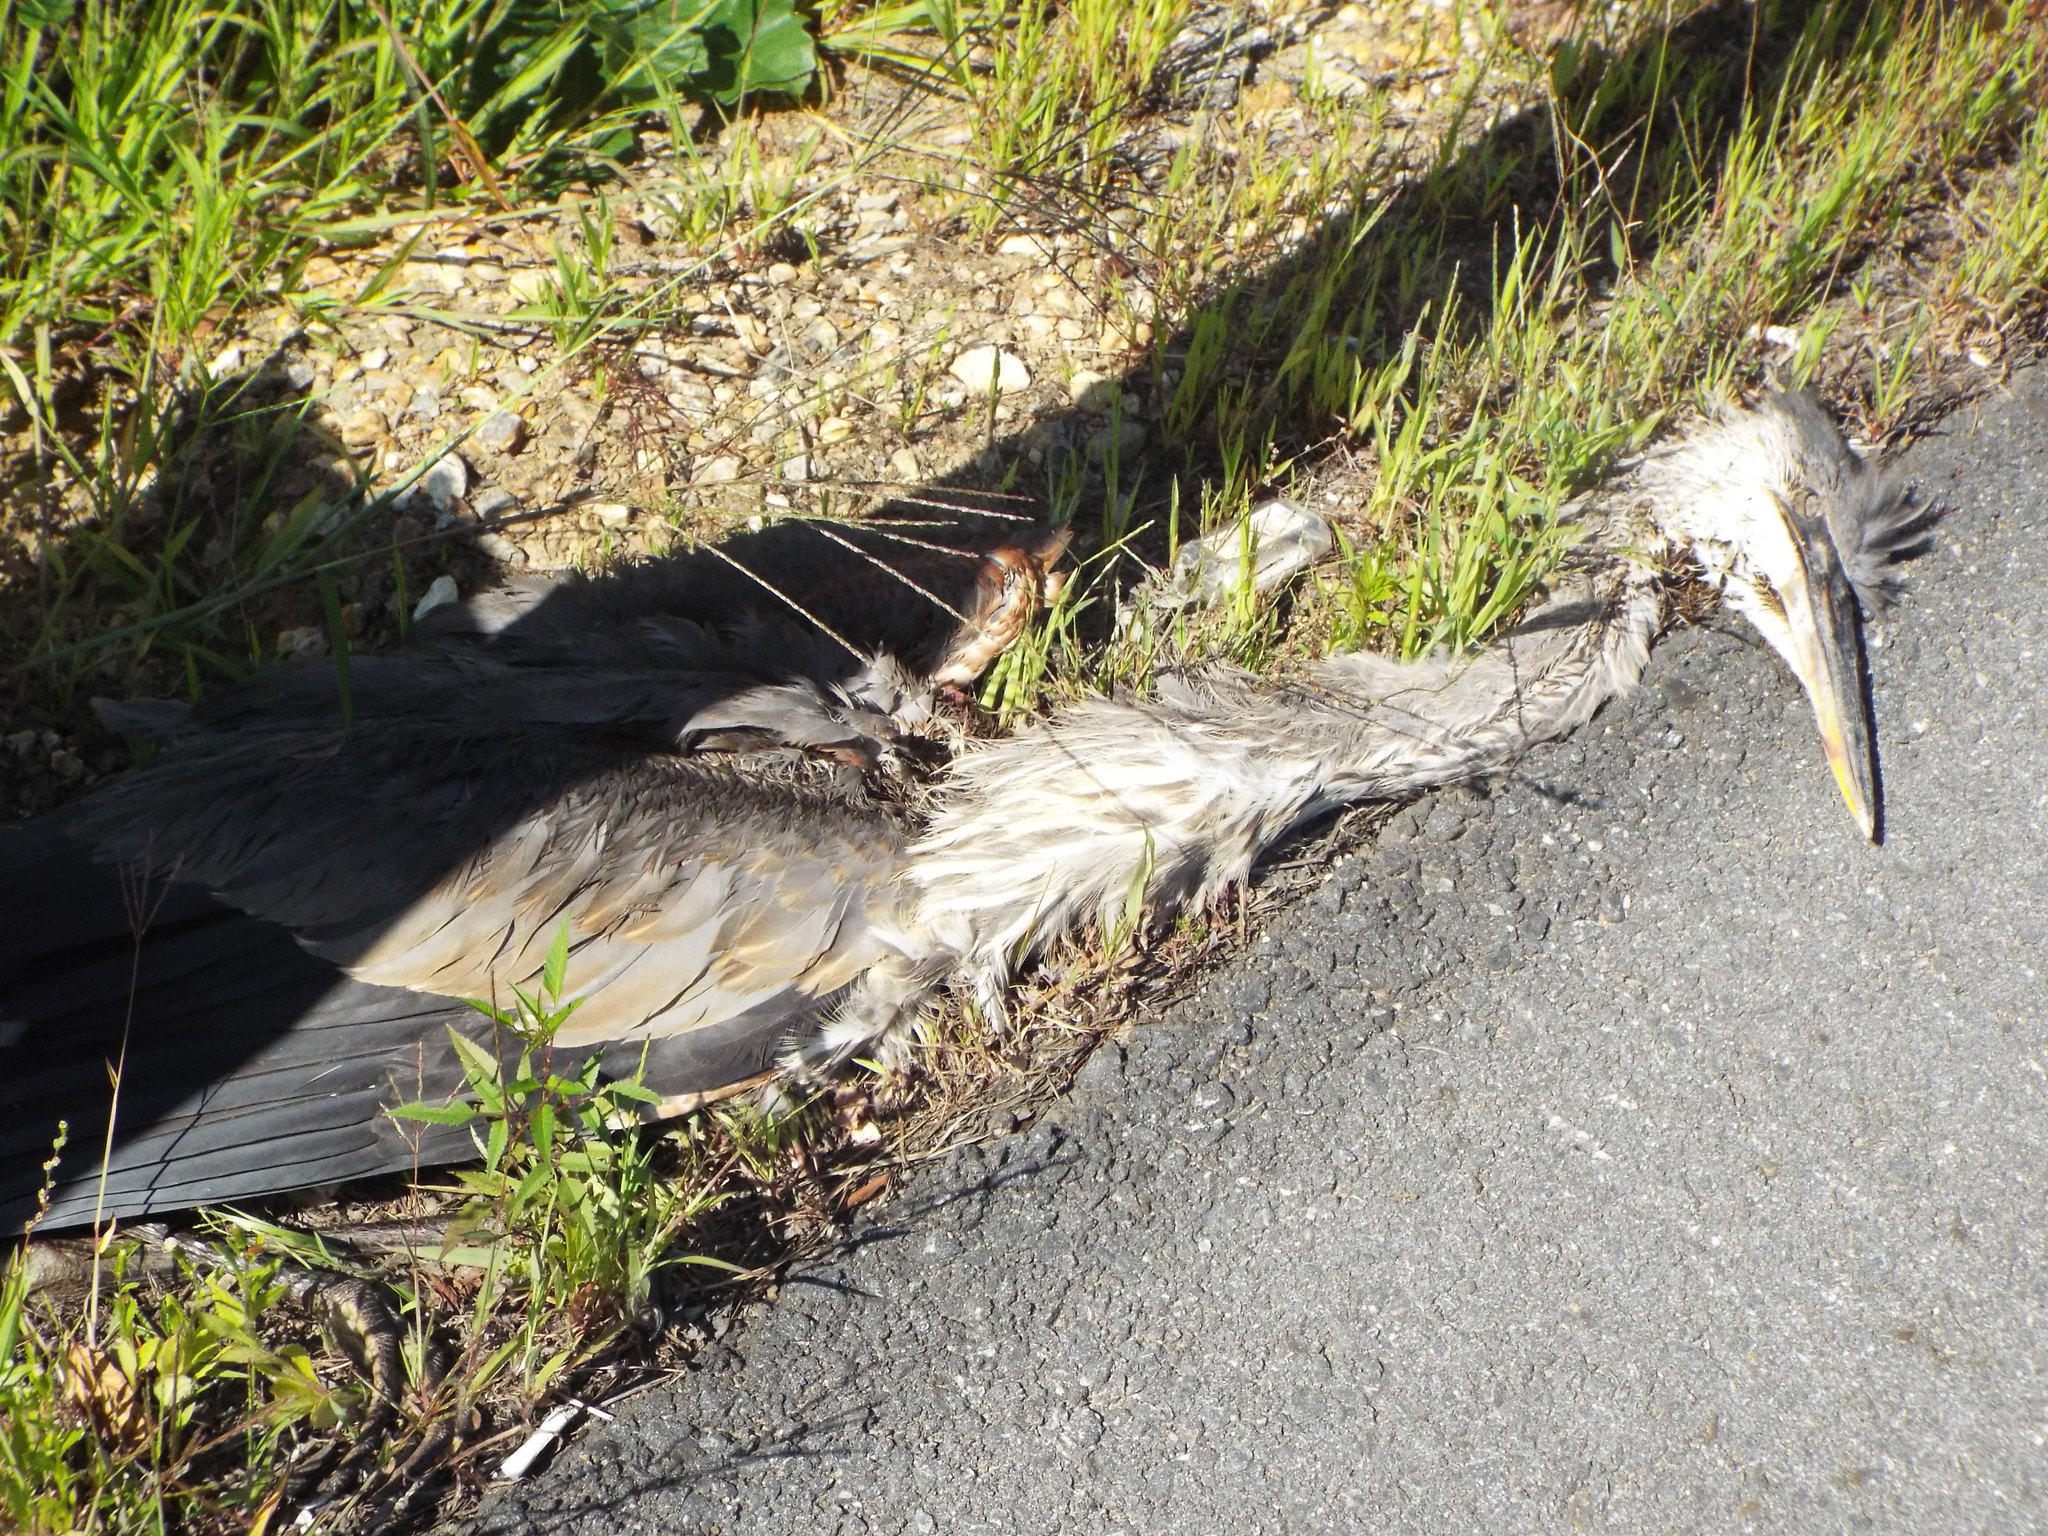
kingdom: Animalia
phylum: Chordata
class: Aves
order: Pelecaniformes
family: Ardeidae
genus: Ardea
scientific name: Ardea herodias
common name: Great blue heron
